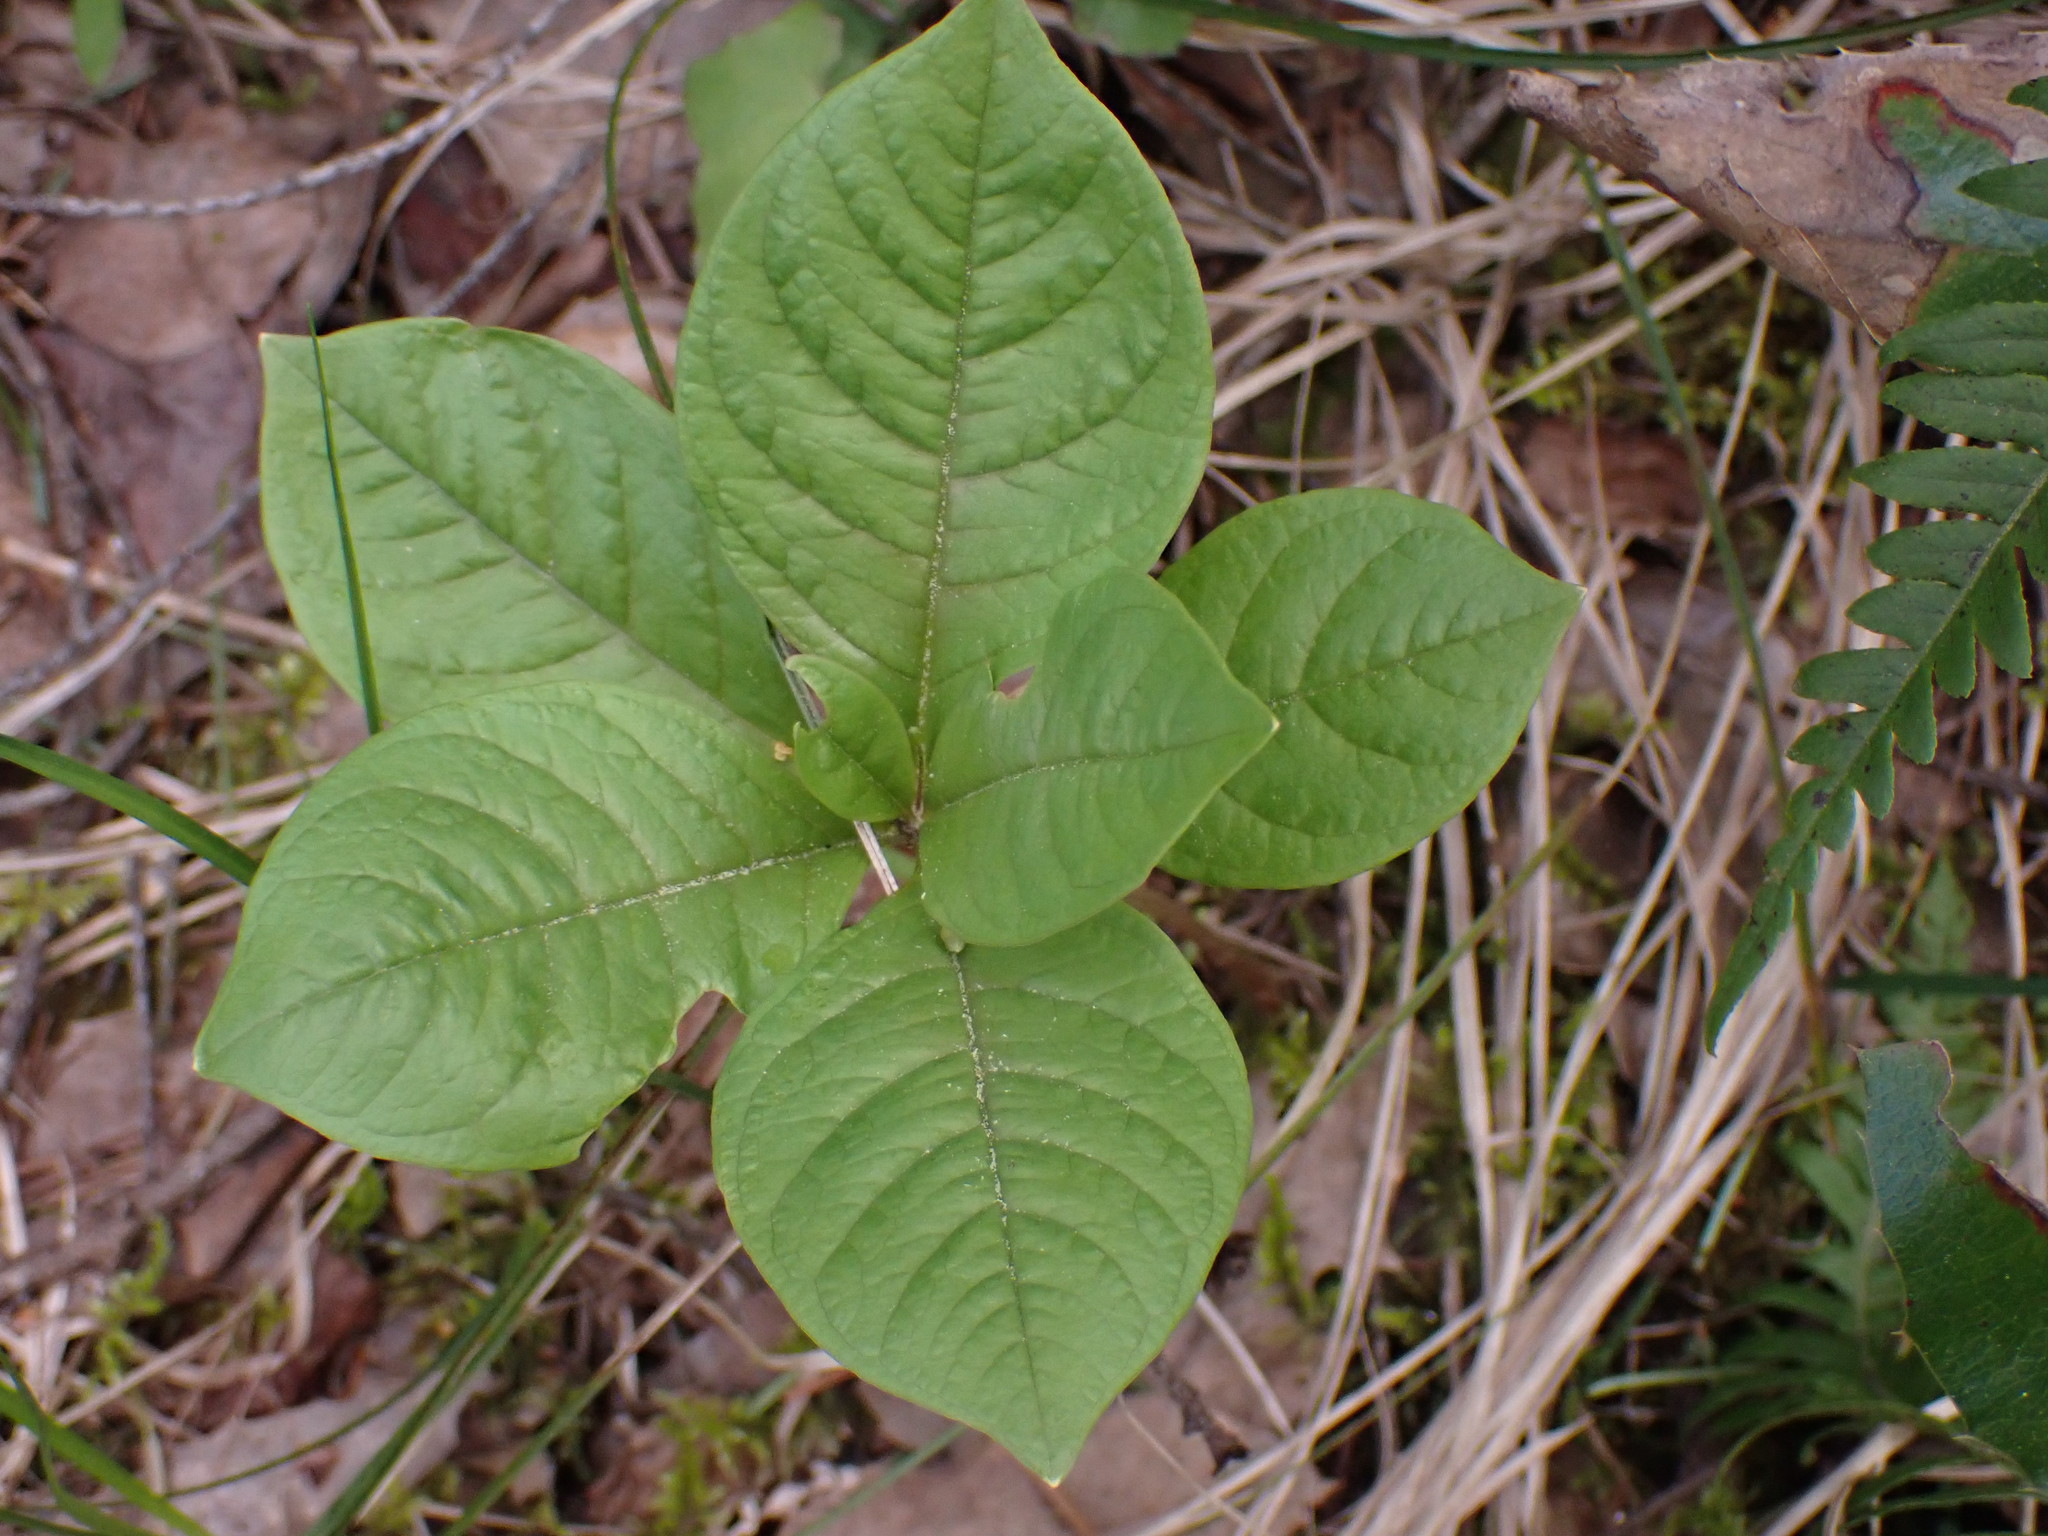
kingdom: Plantae
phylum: Tracheophyta
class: Magnoliopsida
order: Ericales
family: Primulaceae
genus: Lysimachia
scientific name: Lysimachia latifolia
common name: Pacific starflower
